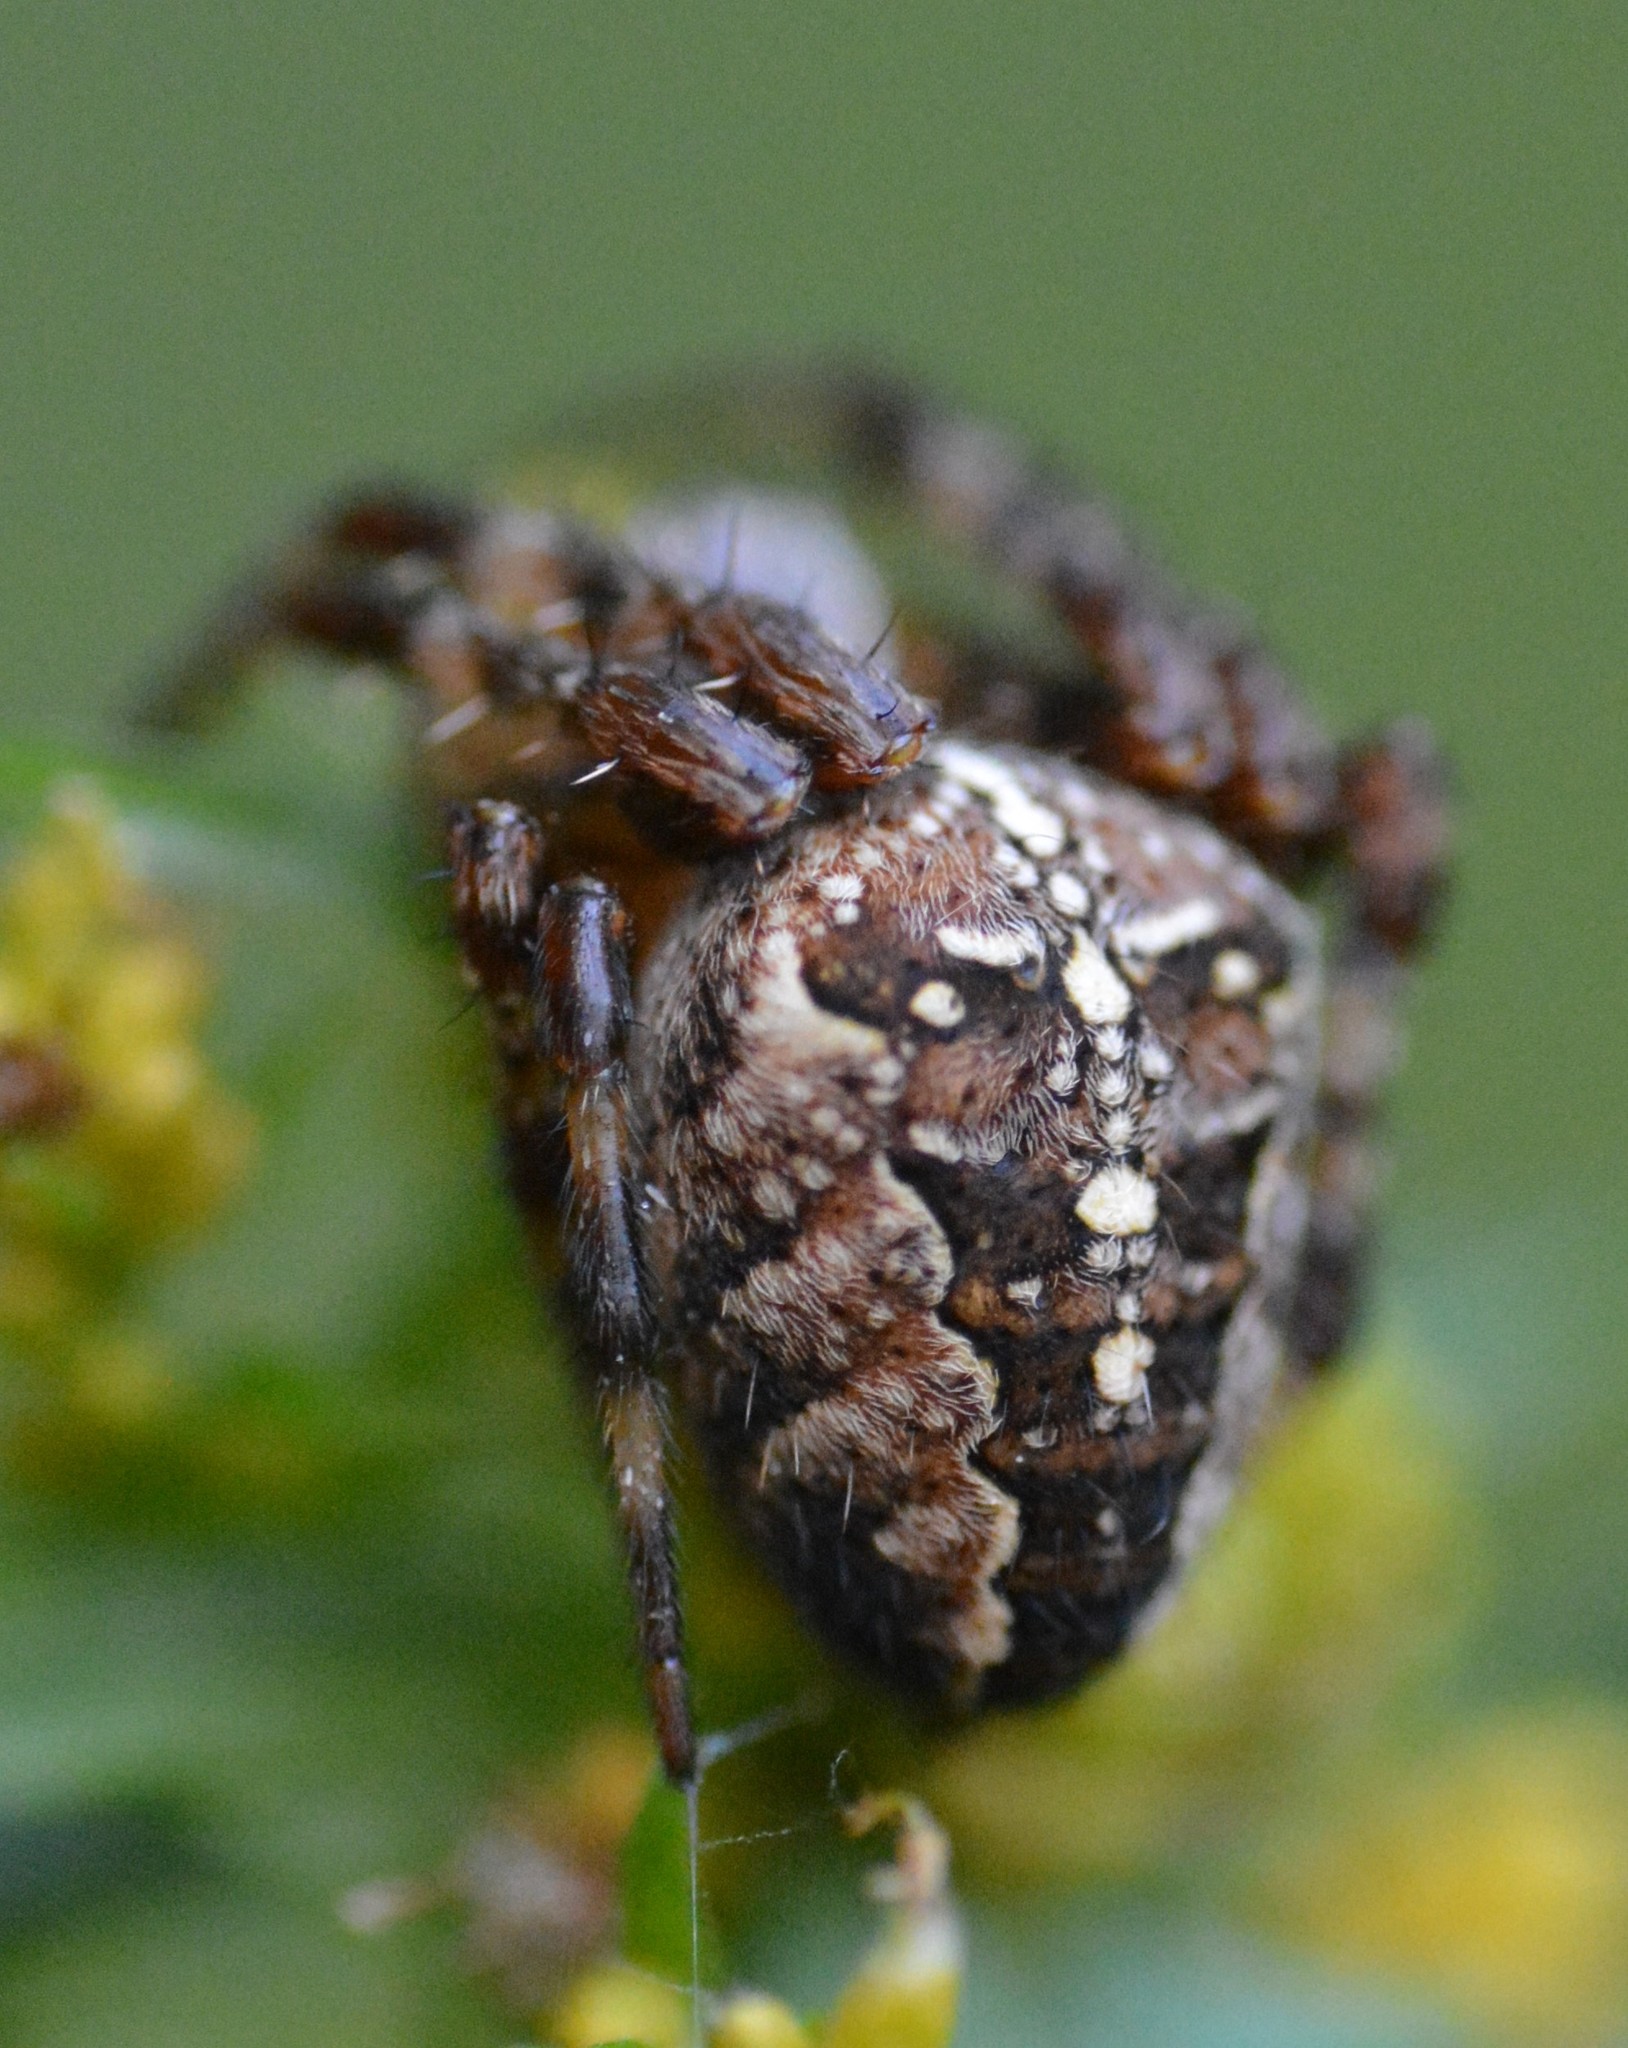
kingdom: Animalia
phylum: Arthropoda
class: Arachnida
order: Araneae
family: Araneidae
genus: Araneus
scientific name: Araneus diadematus
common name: Cross orbweaver
